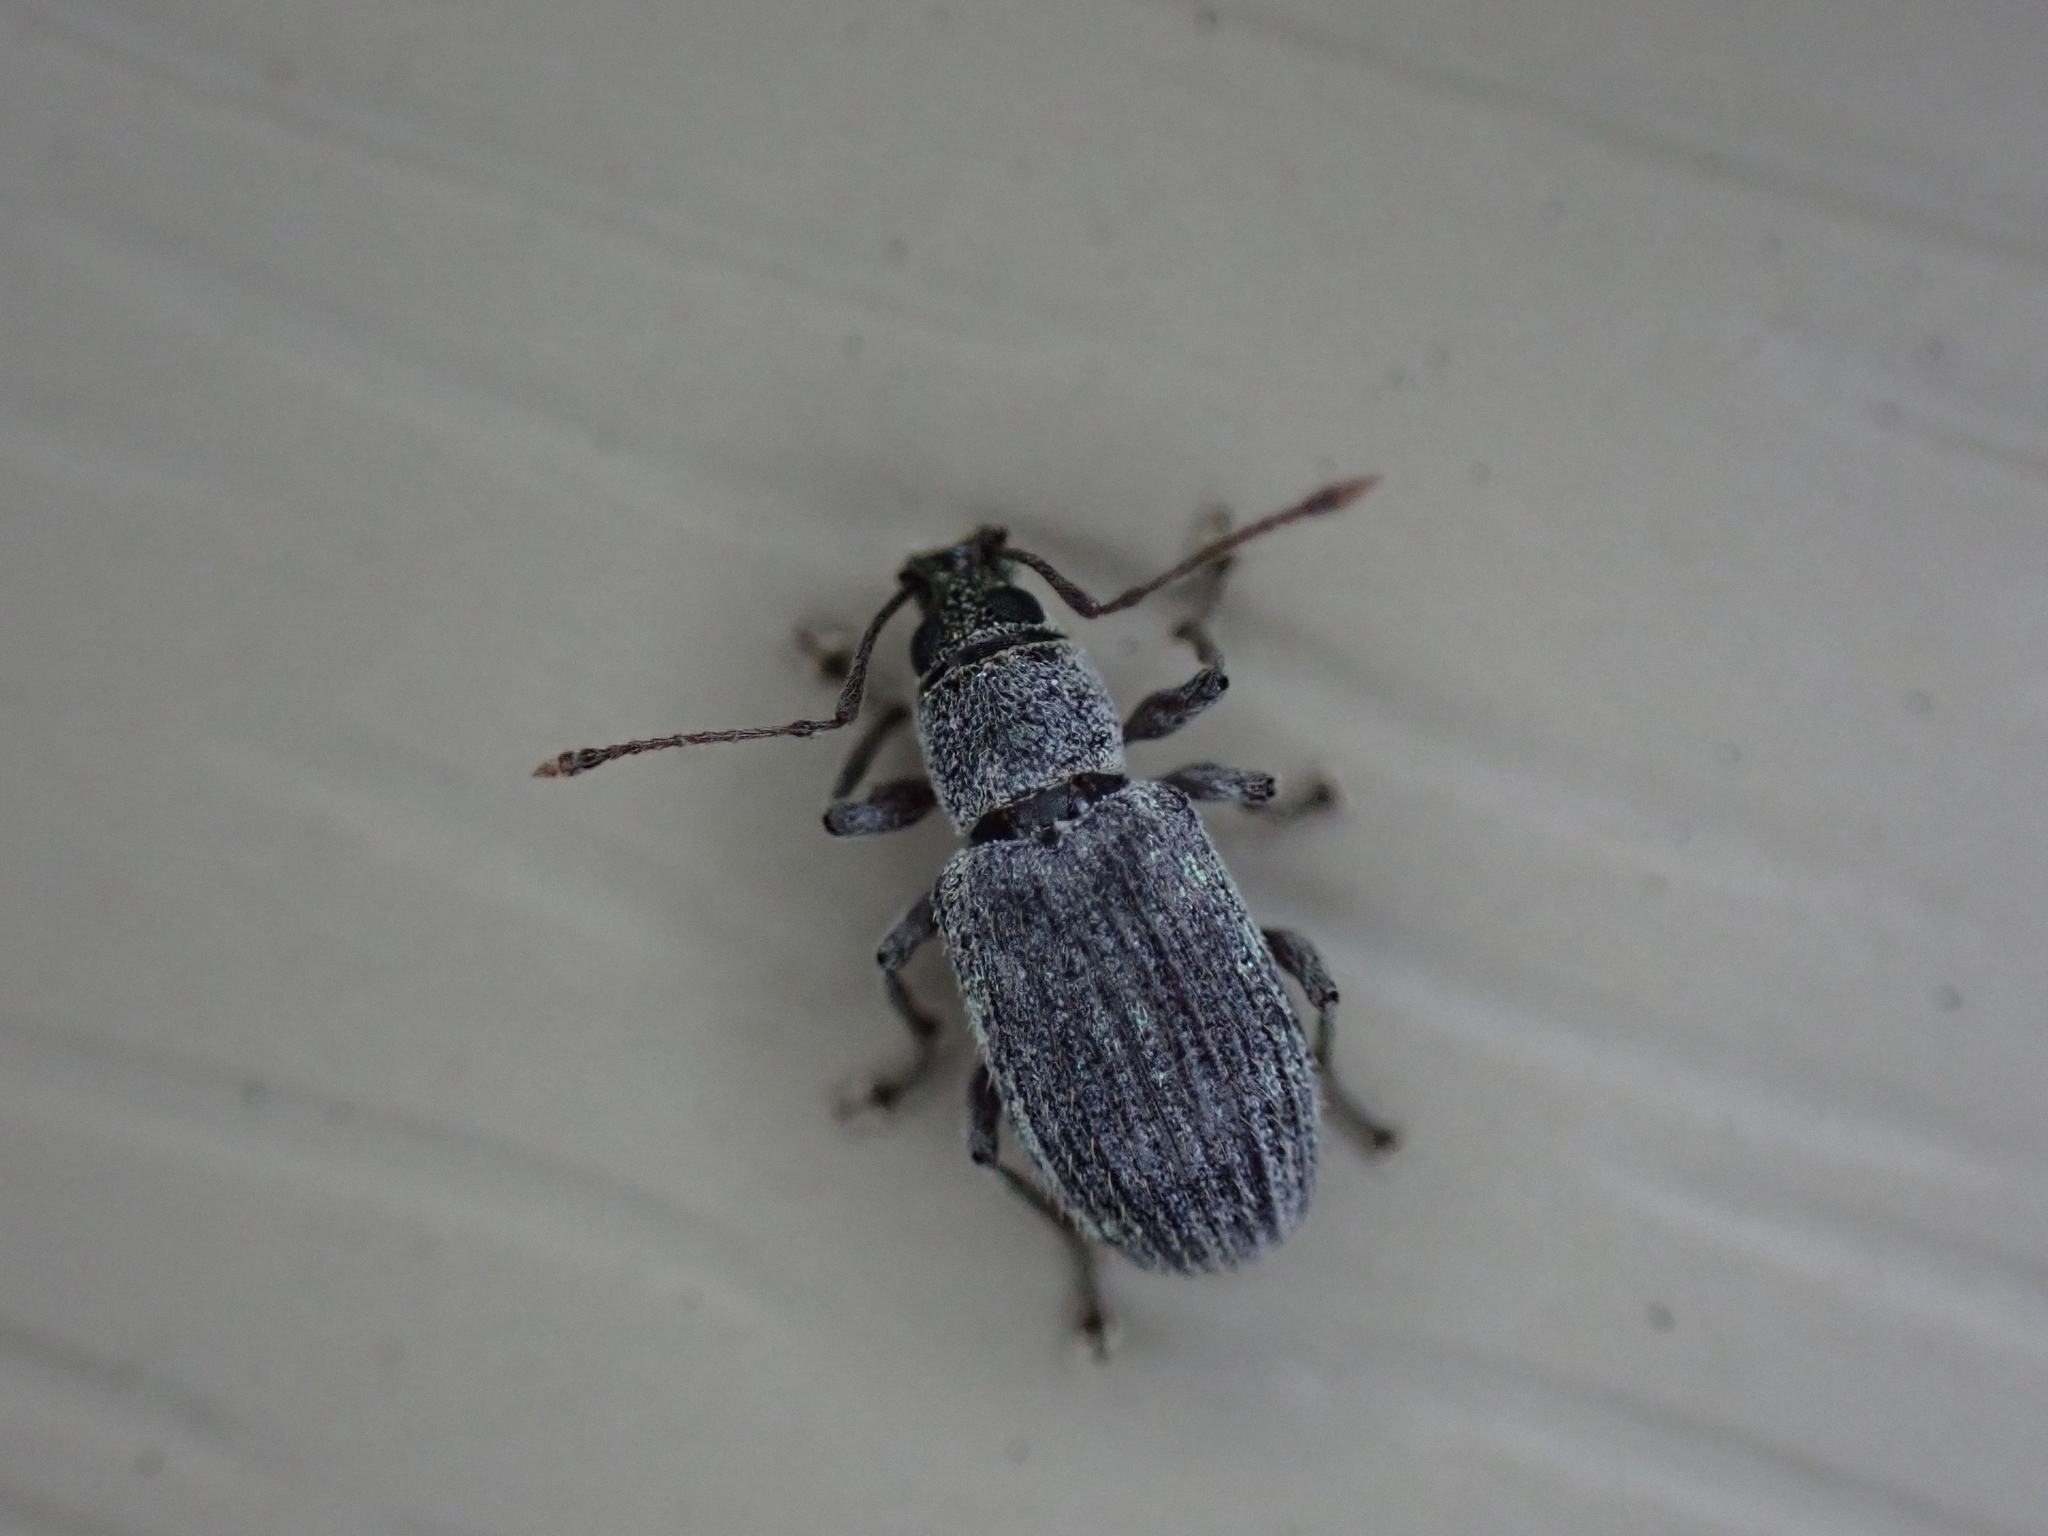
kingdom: Animalia
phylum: Arthropoda
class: Insecta
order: Coleoptera
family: Curculionidae
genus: Cyrtepistomus
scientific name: Cyrtepistomus castaneus
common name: Weevil
